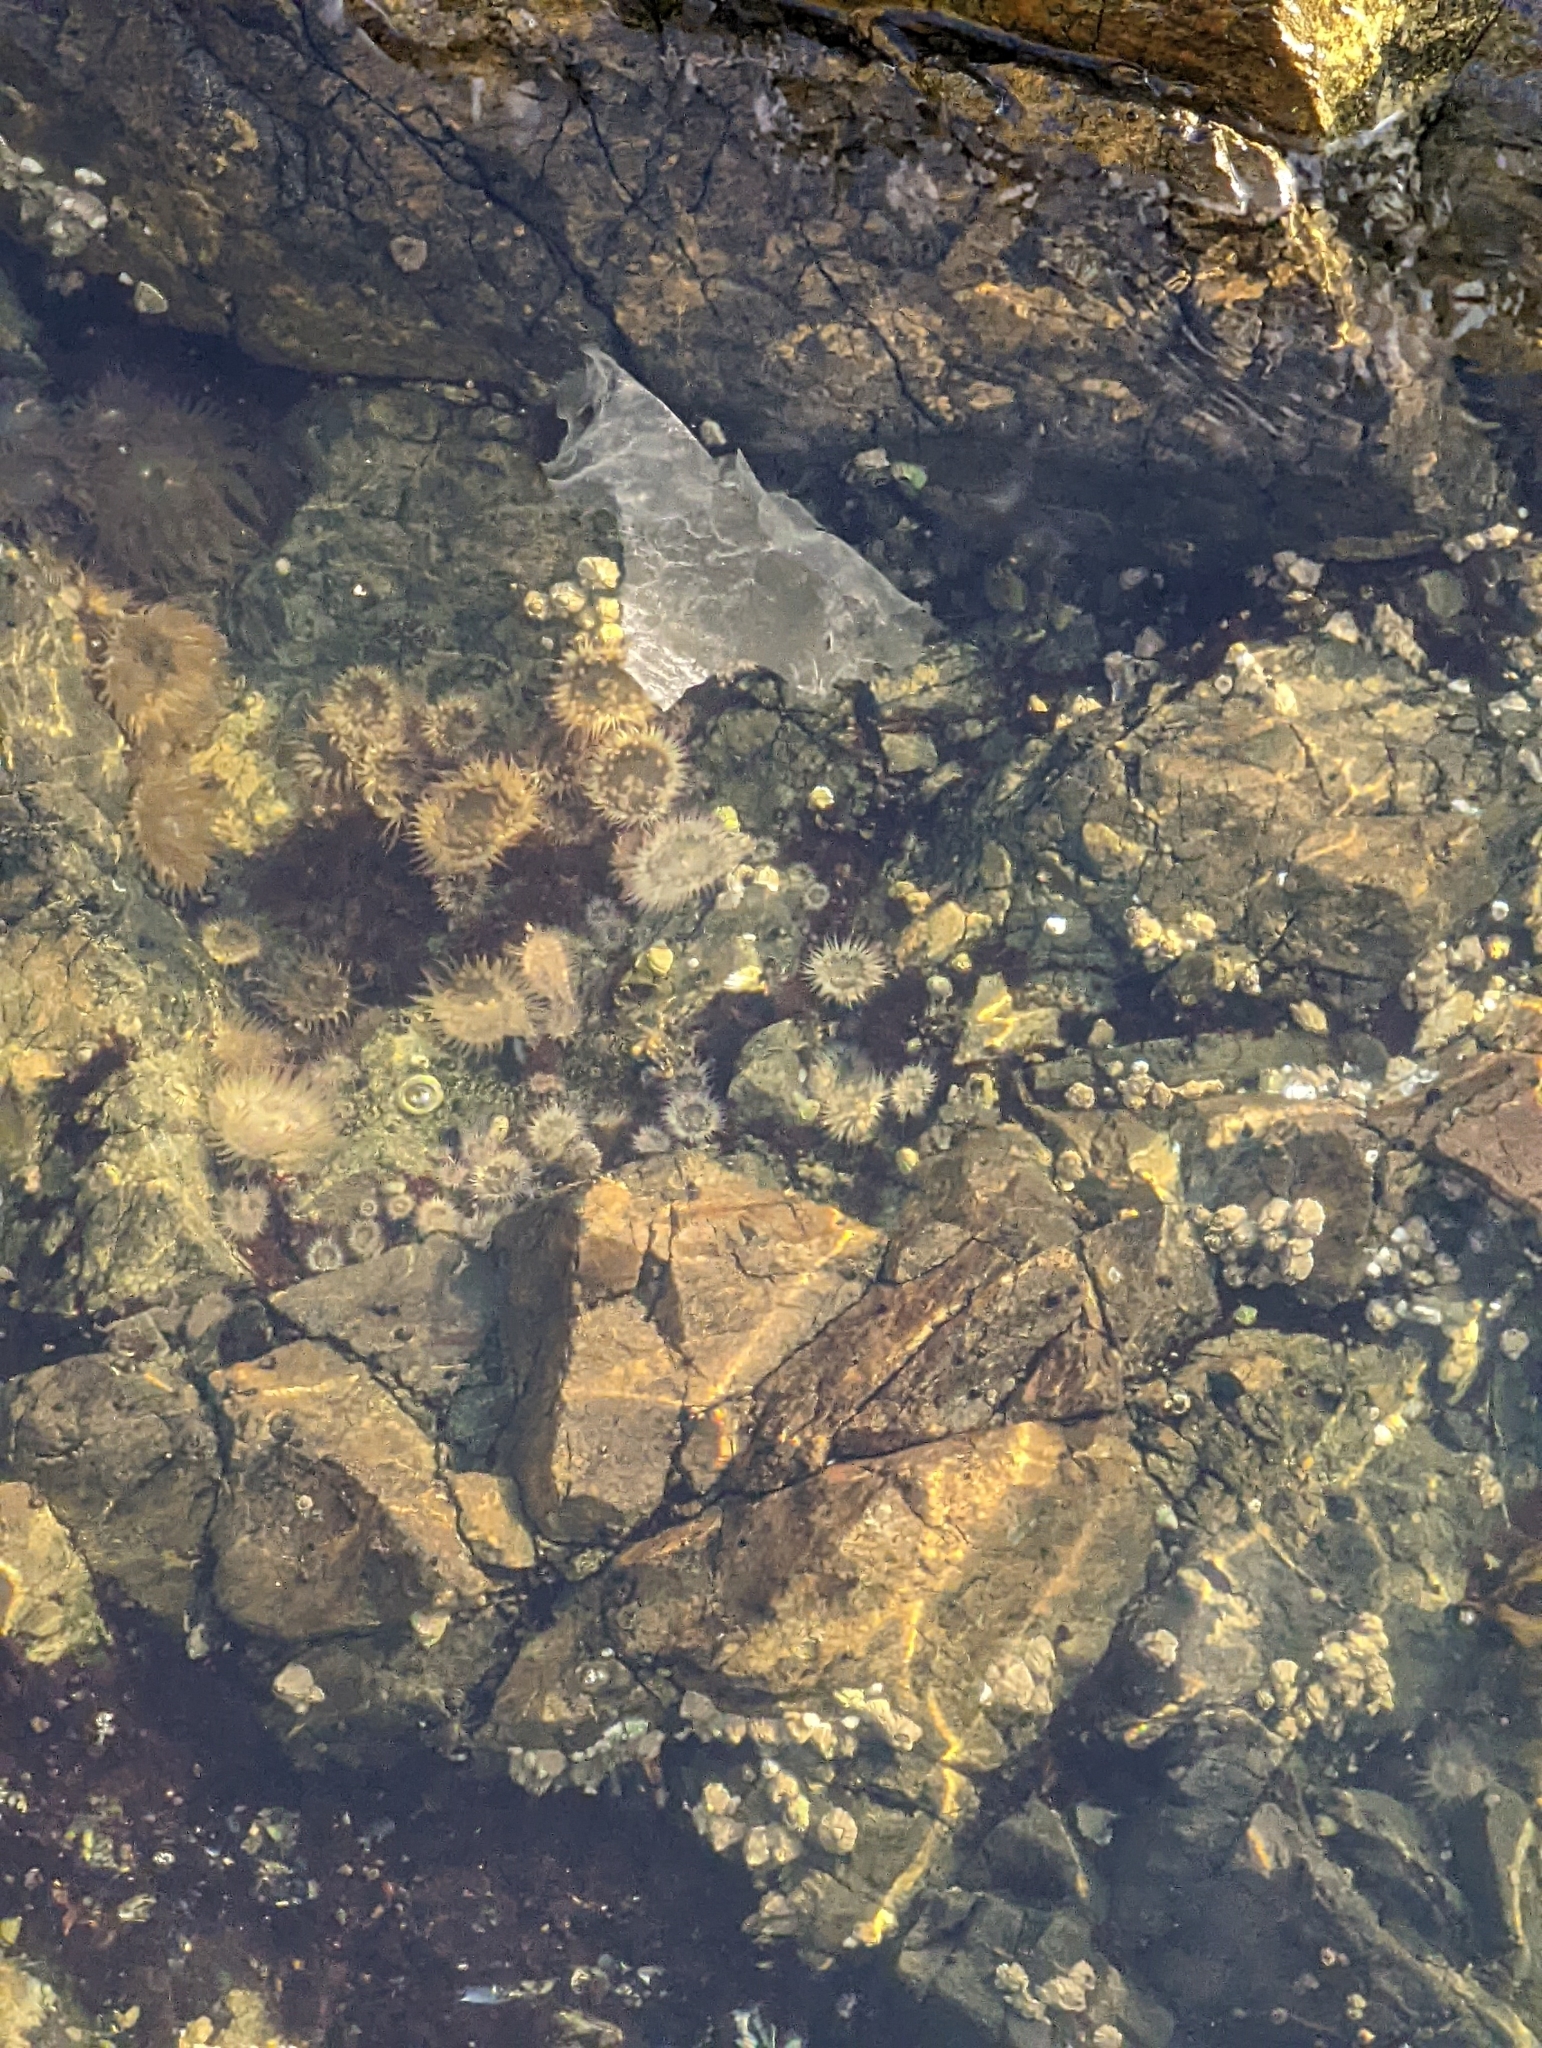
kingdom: Animalia
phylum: Cnidaria
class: Anthozoa
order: Actiniaria
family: Actiniidae
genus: Anthopleura
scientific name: Anthopleura elegantissima
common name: Clonal anemone
